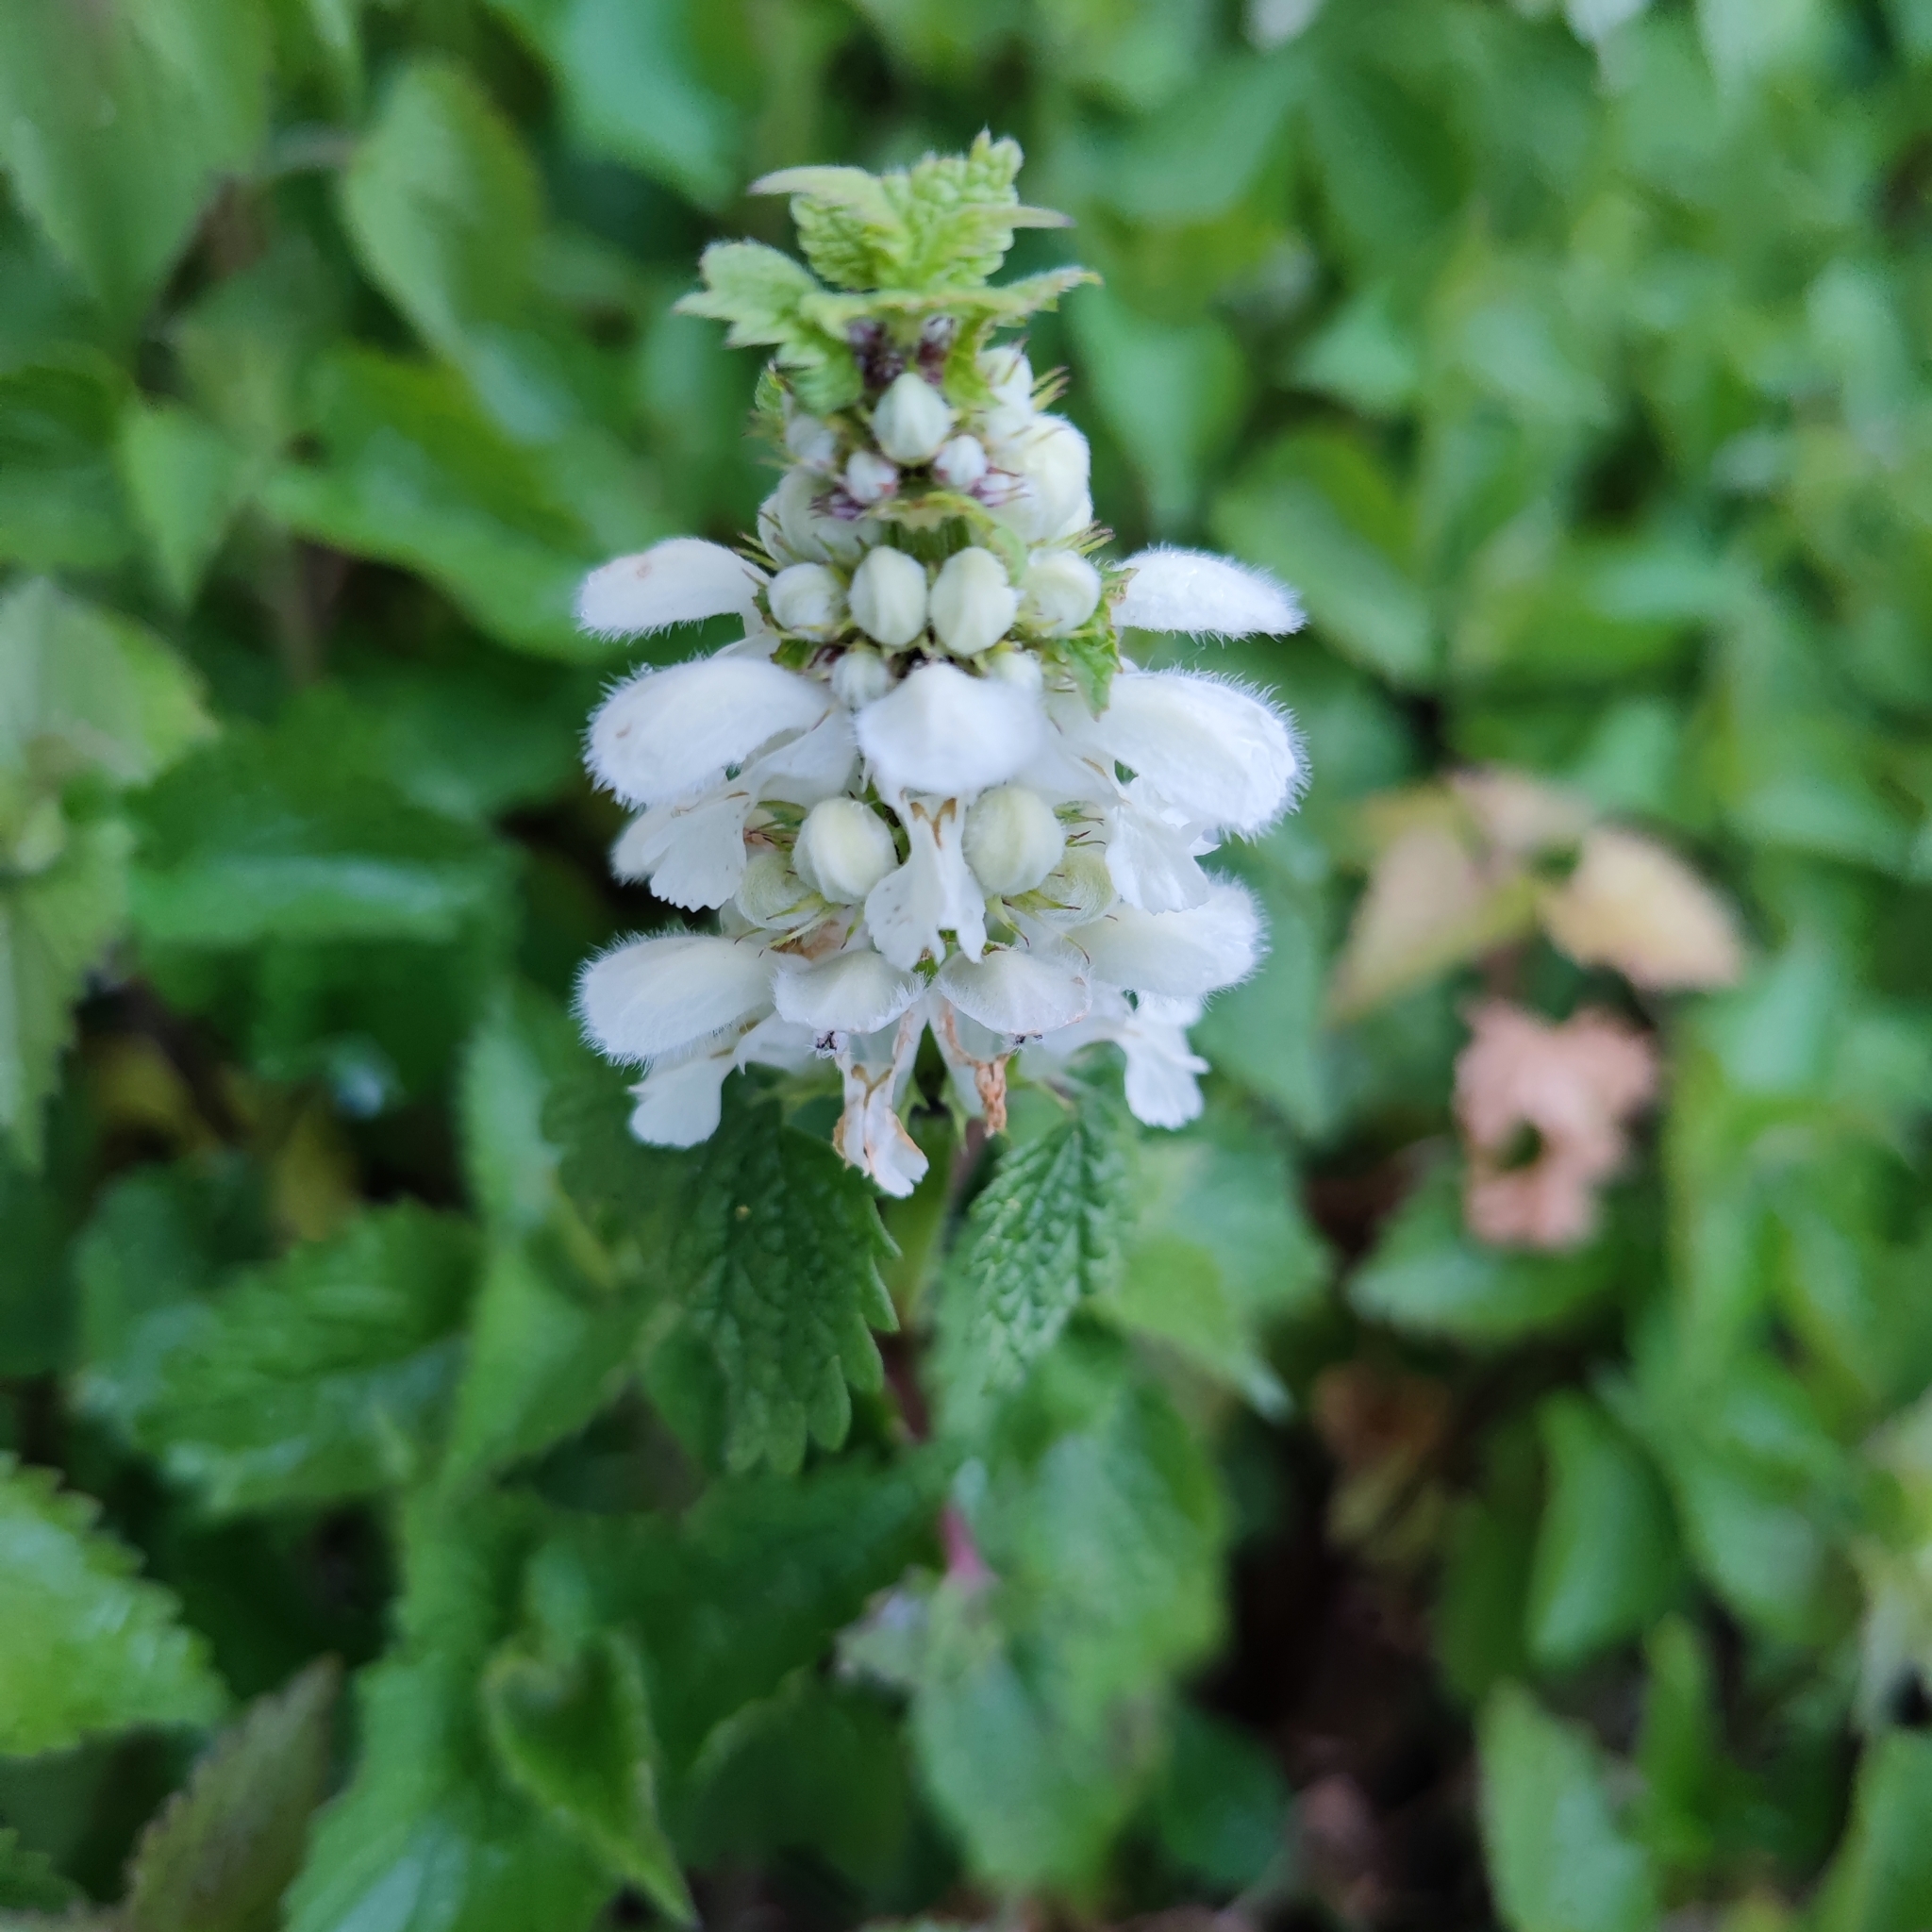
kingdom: Plantae
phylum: Tracheophyta
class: Magnoliopsida
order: Lamiales
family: Lamiaceae
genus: Lamium
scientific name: Lamium album
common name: White dead-nettle
